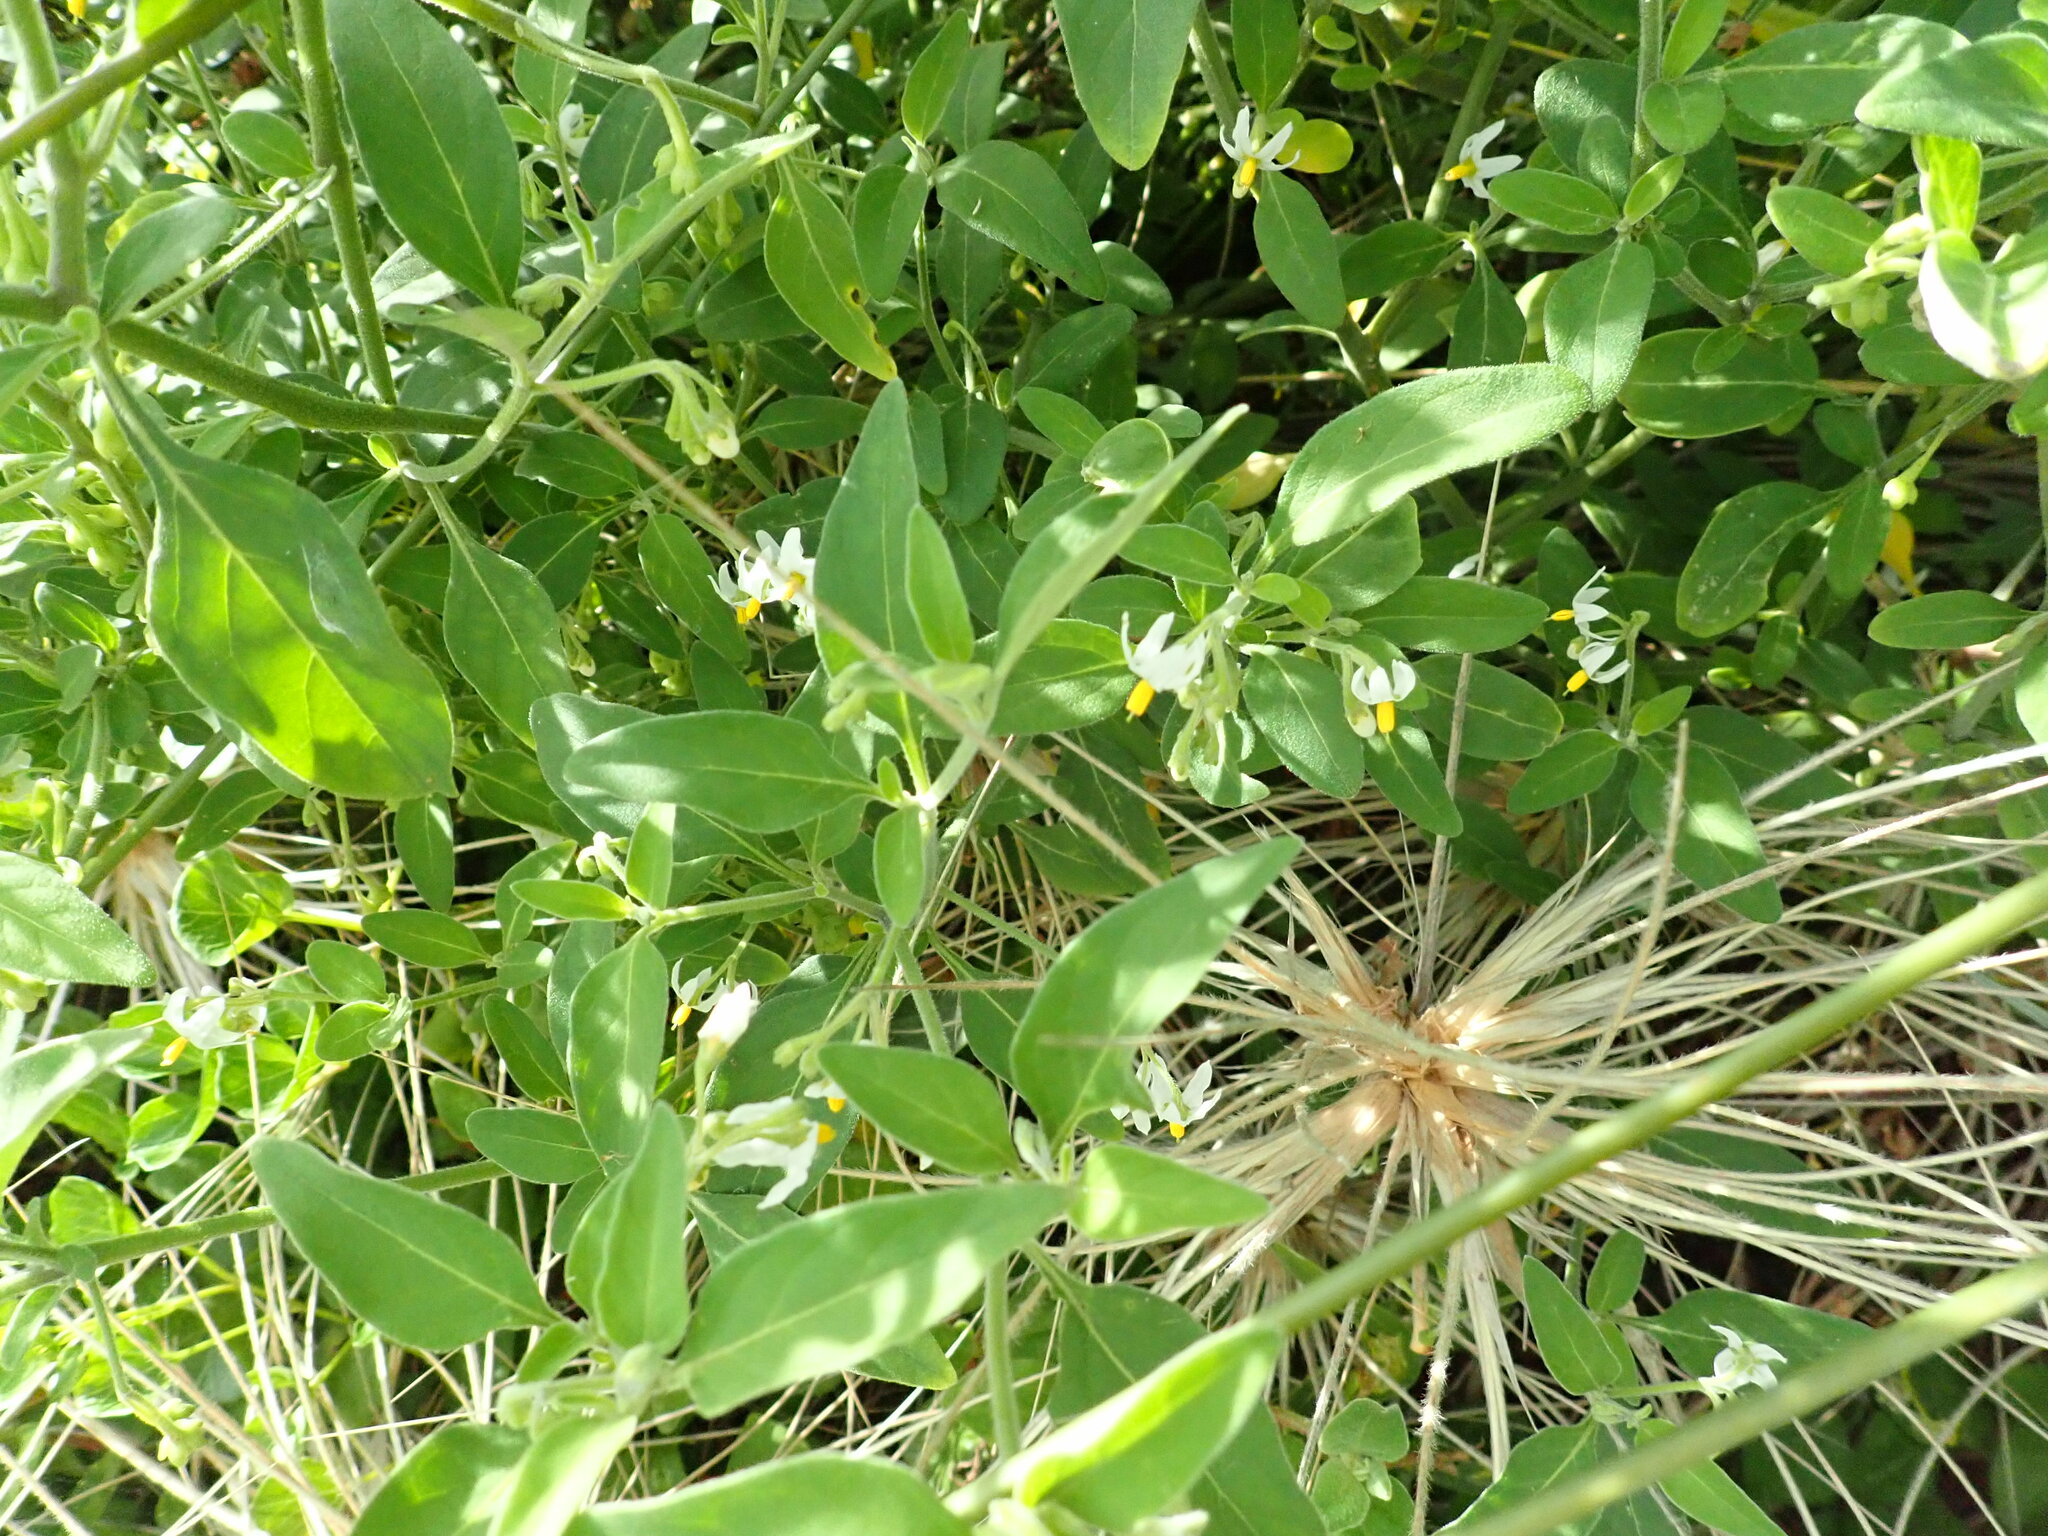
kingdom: Plantae
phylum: Tracheophyta
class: Magnoliopsida
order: Solanales
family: Solanaceae
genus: Solanum
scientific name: Solanum chenopodioides
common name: Tall nightshade
